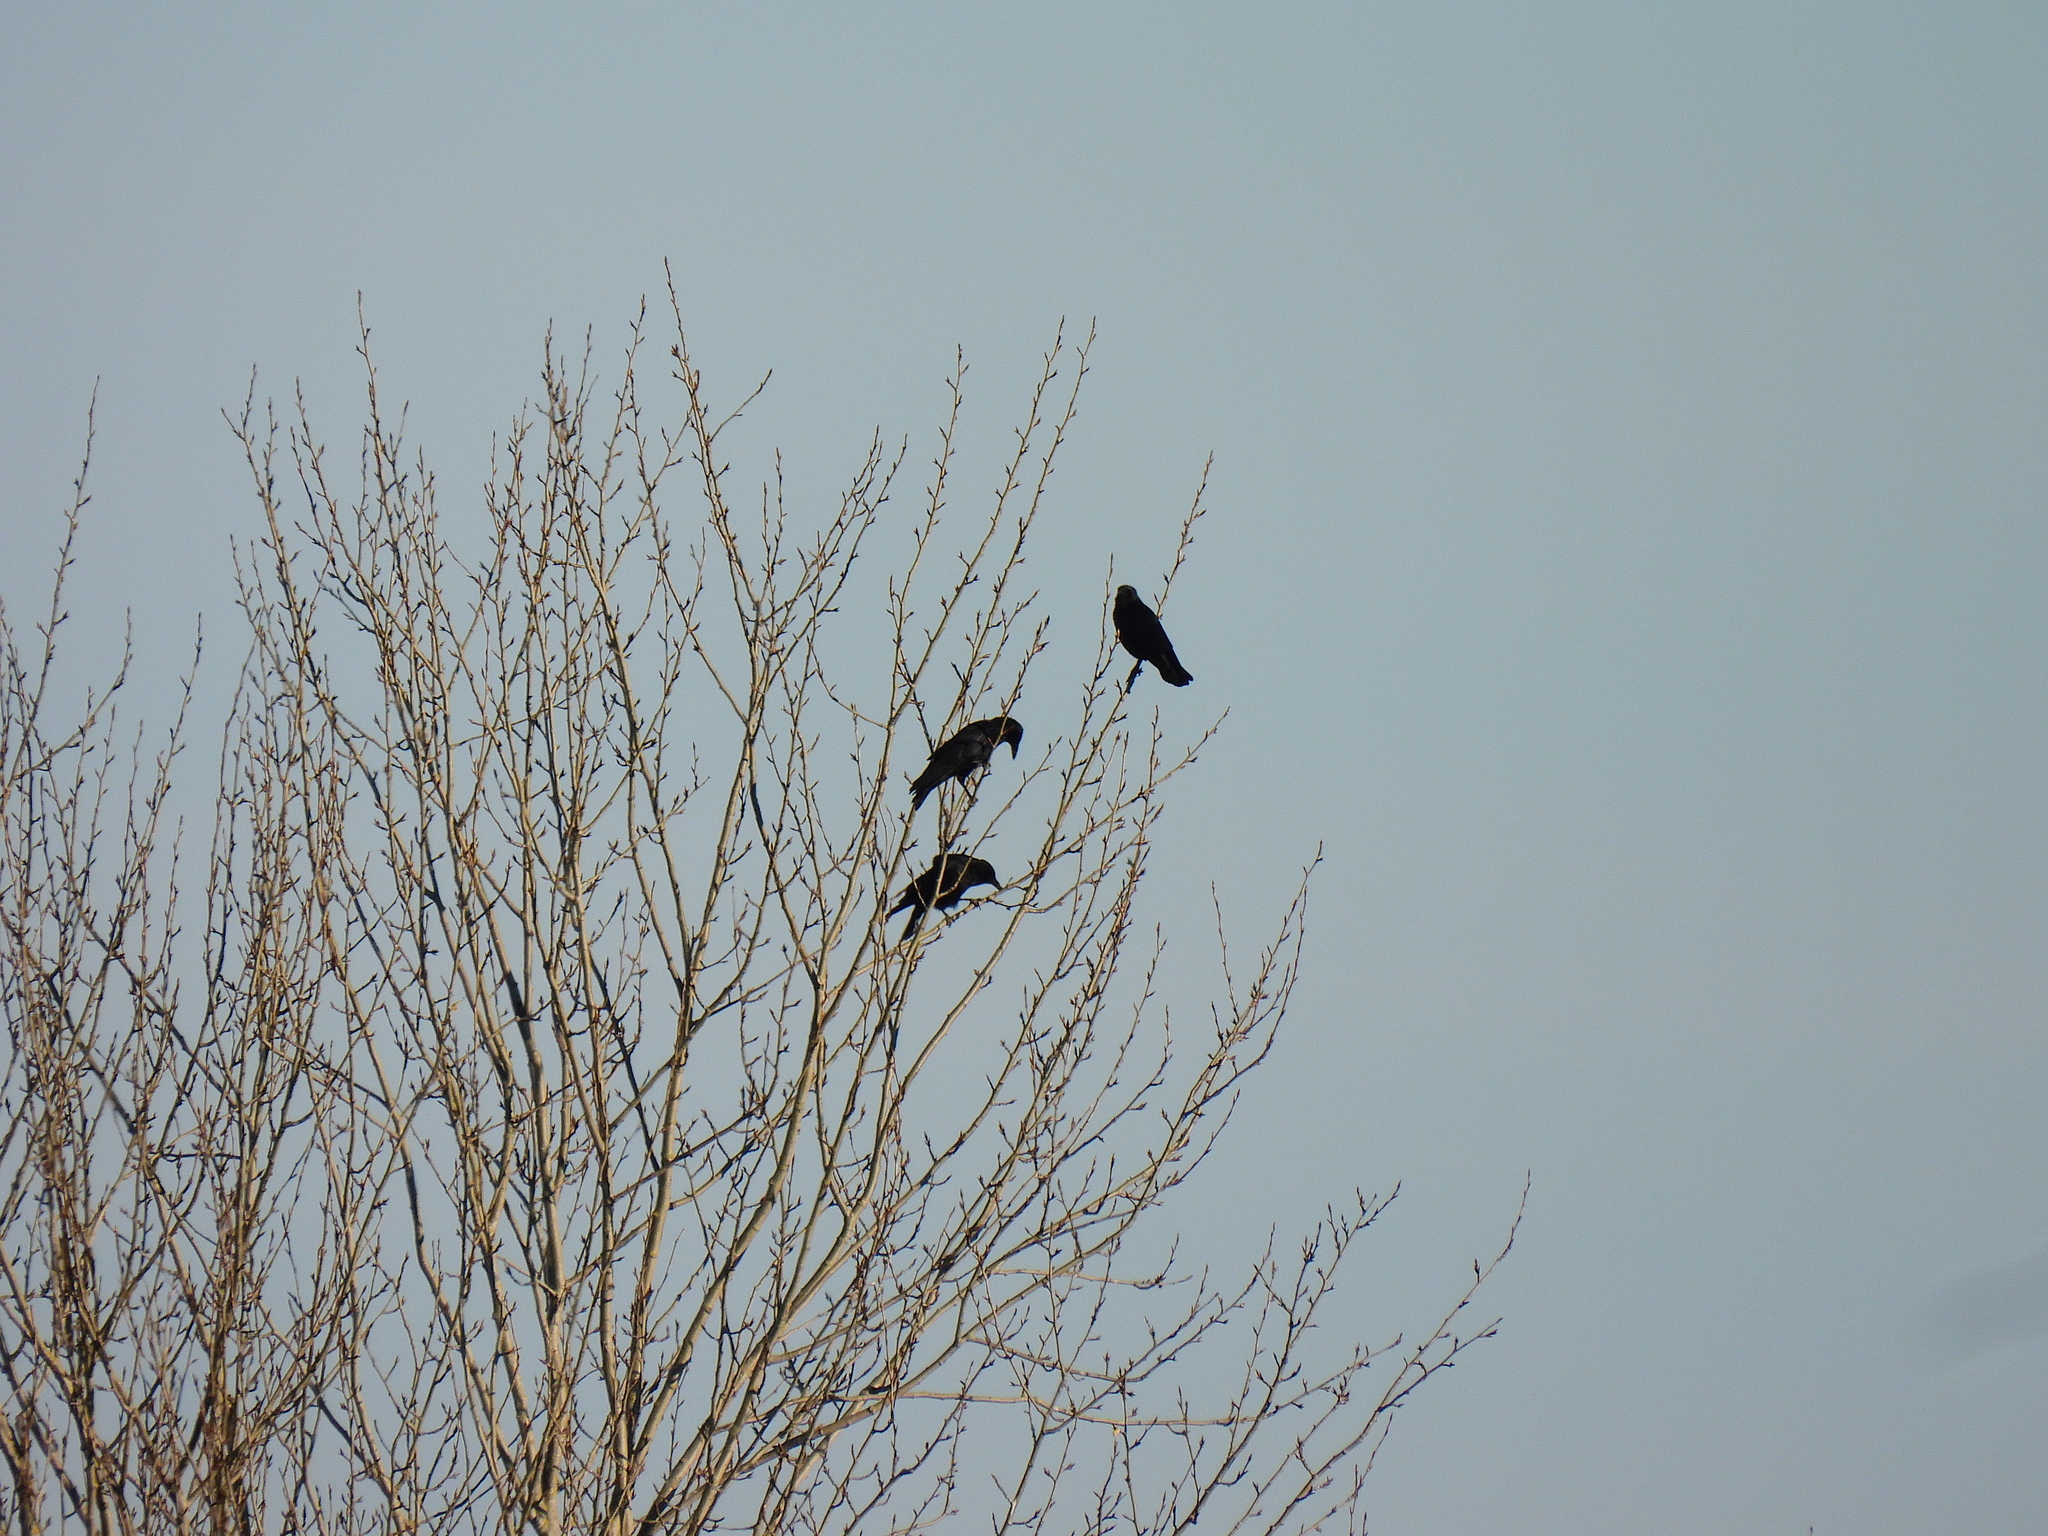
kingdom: Animalia
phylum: Chordata
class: Aves
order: Passeriformes
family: Corvidae
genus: Corvus
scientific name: Corvus corone
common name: Carrion crow
